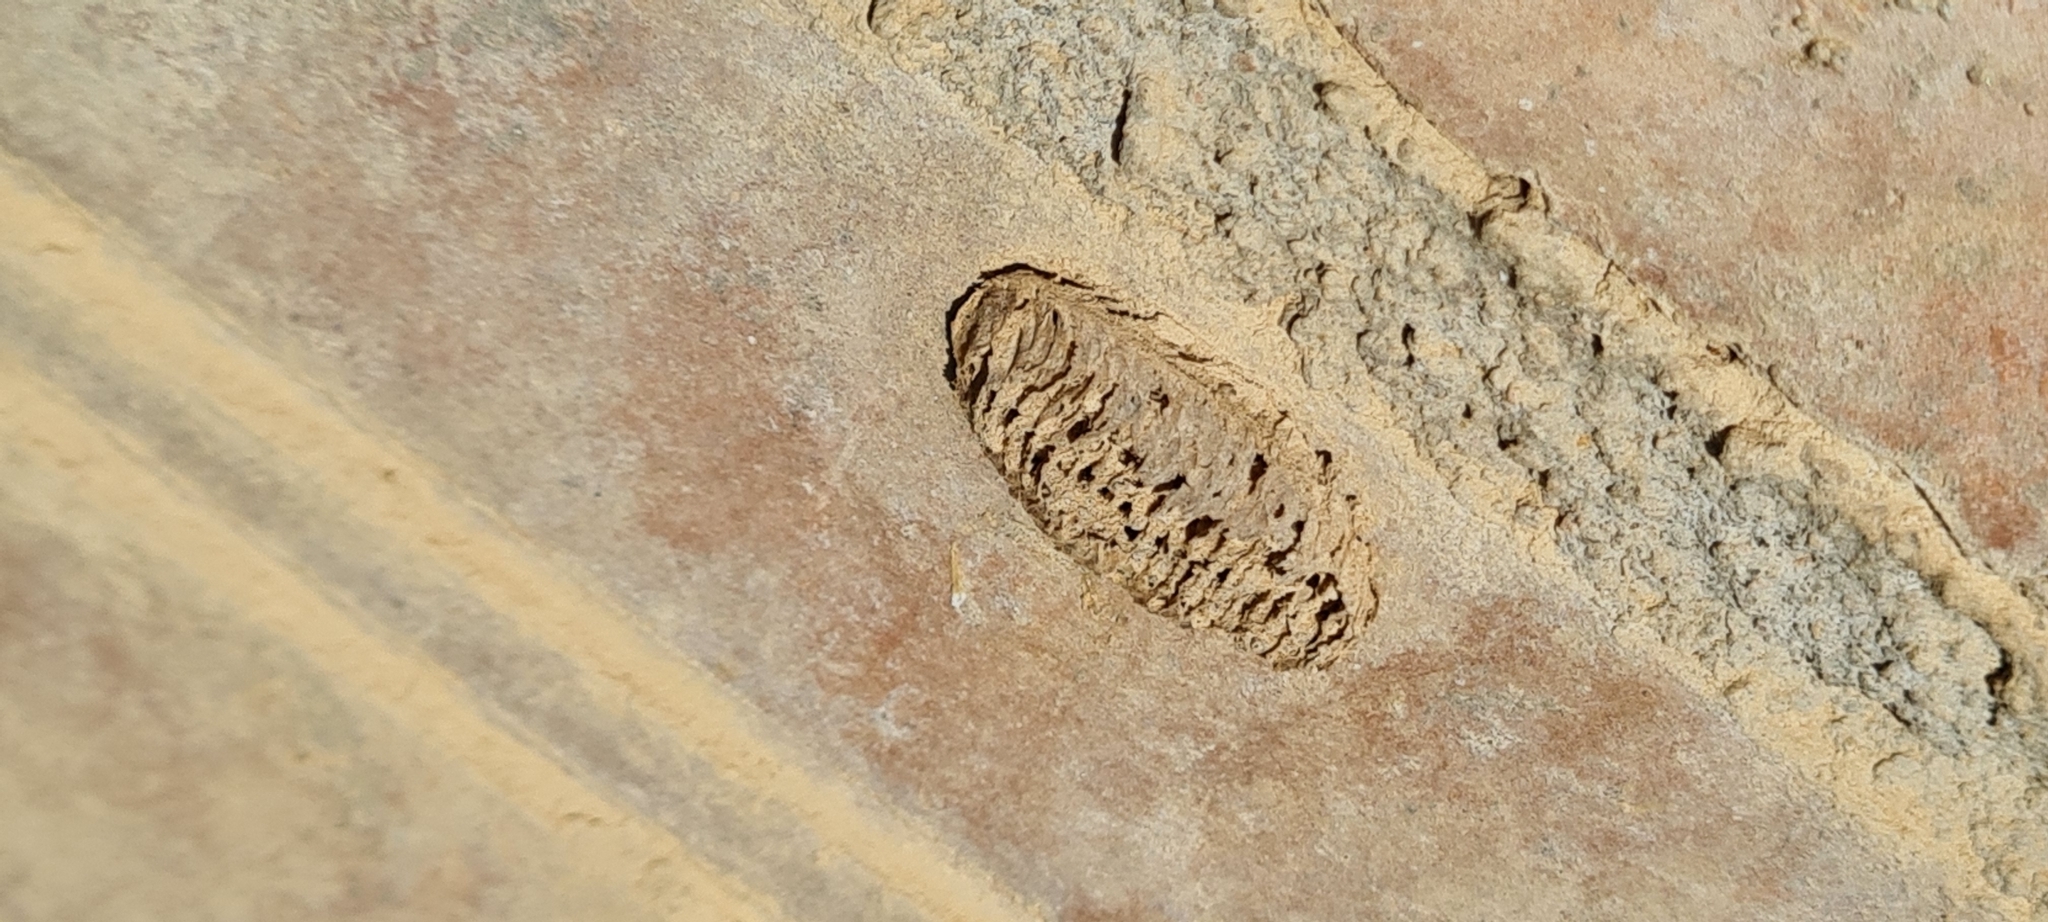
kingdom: Animalia
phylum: Arthropoda
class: Insecta
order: Mantodea
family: Mantidae
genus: Mantis
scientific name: Mantis religiosa
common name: Praying mantis
